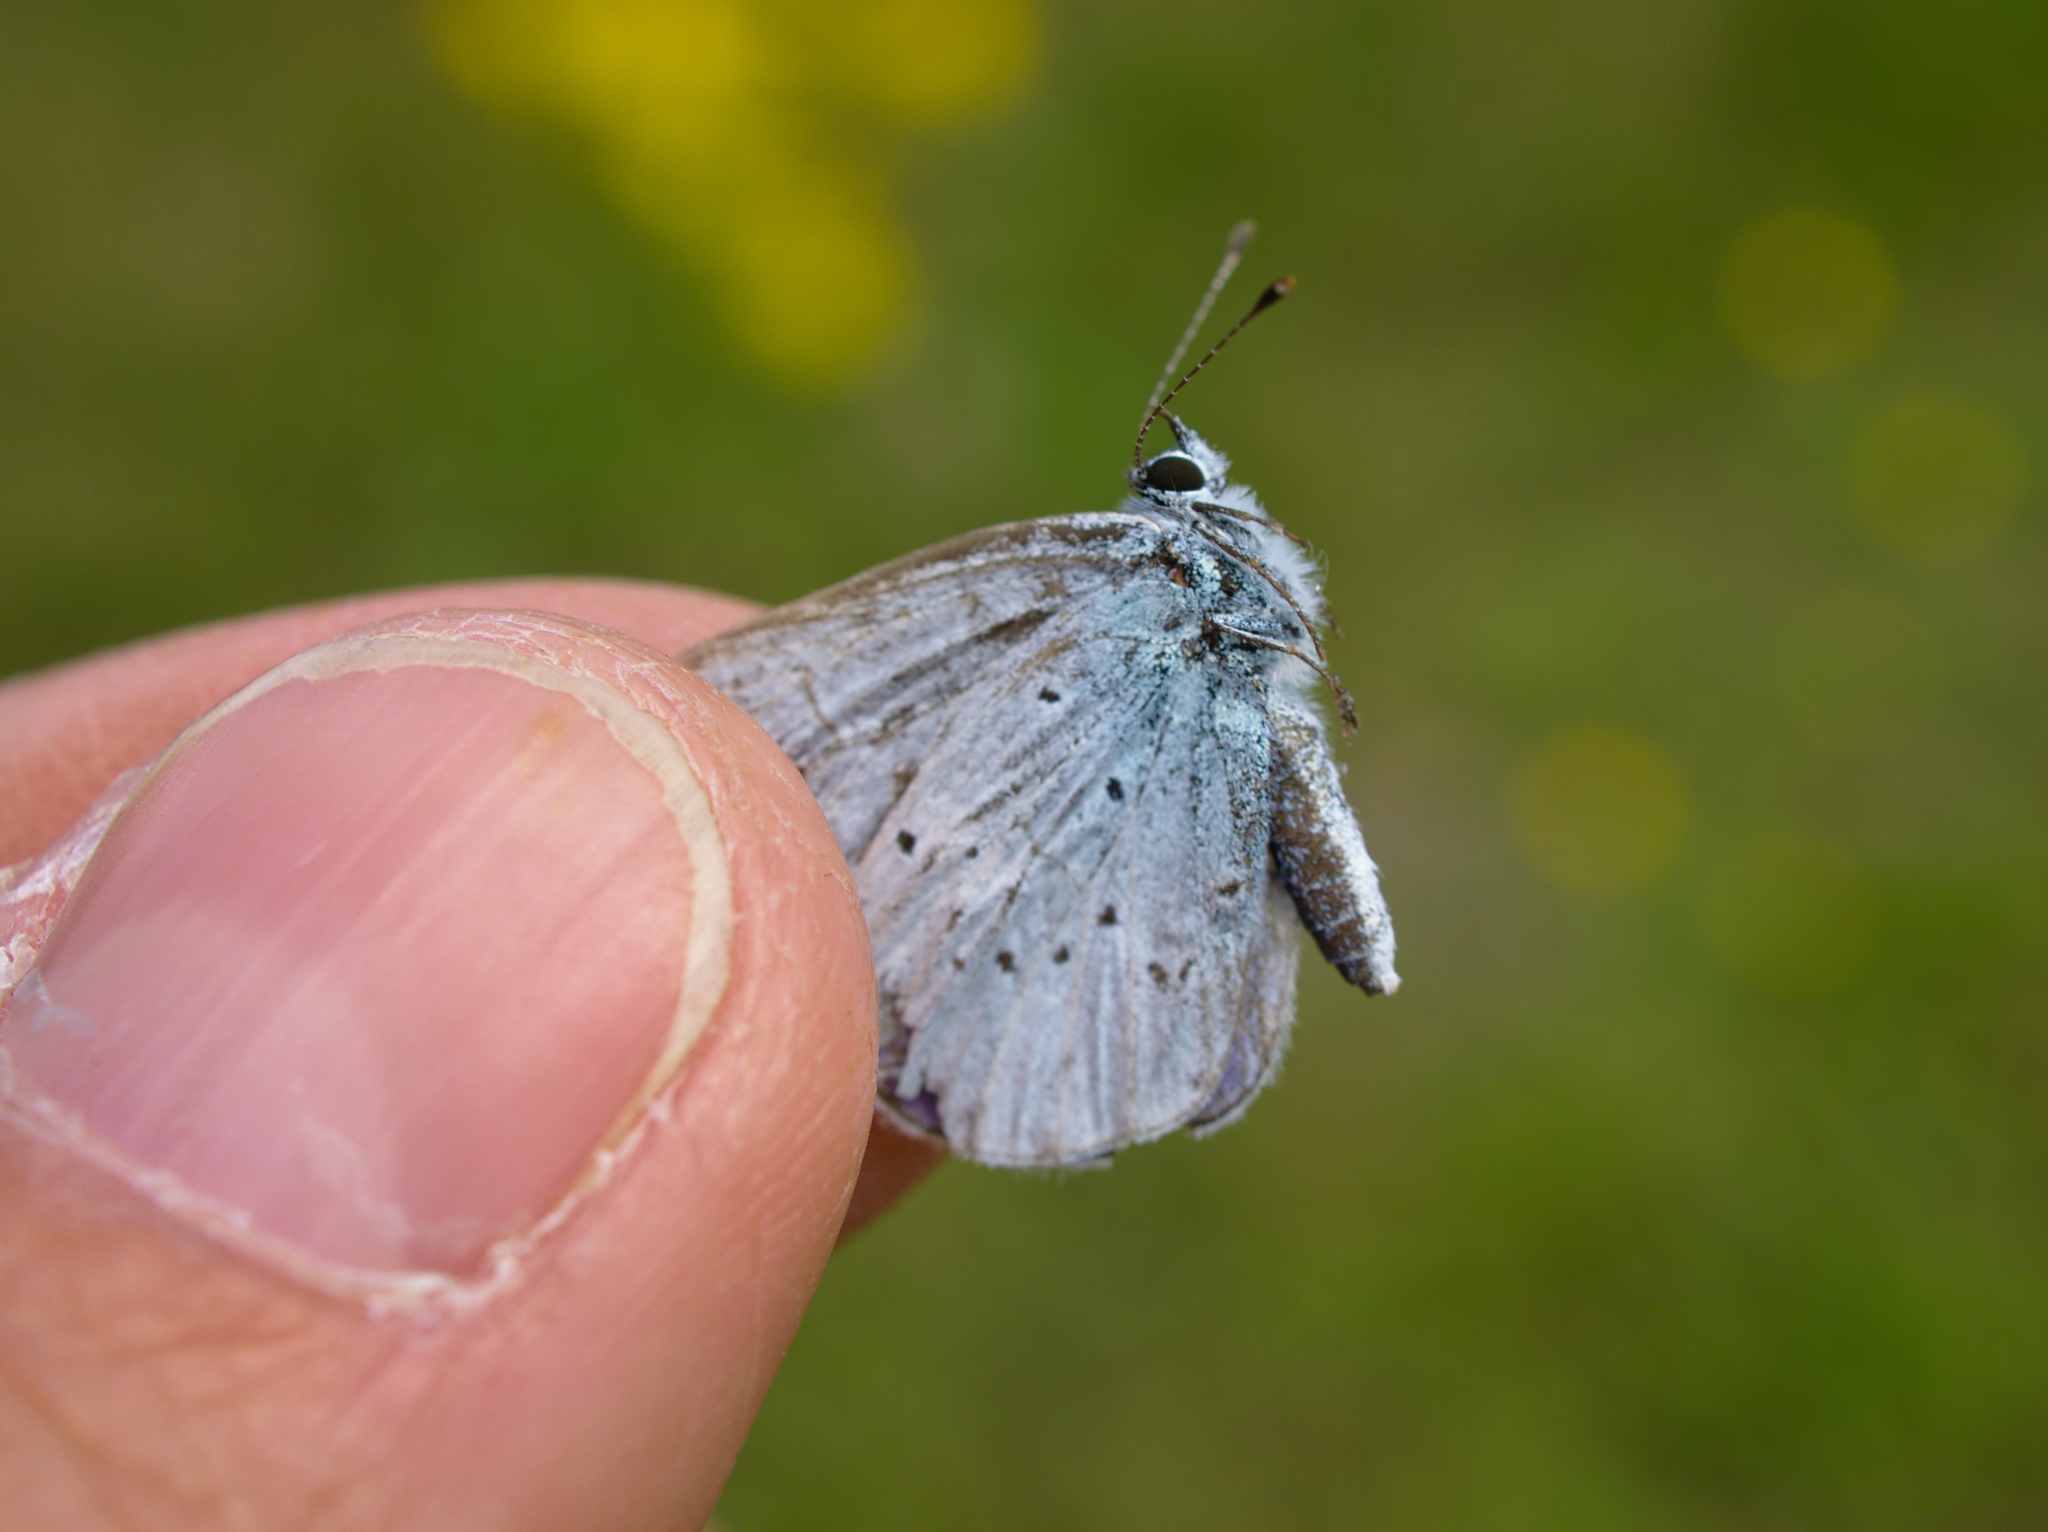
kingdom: Animalia
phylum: Arthropoda
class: Insecta
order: Lepidoptera
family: Lycaenidae
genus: Celastrina
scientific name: Celastrina argiolus
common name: Holly blue
